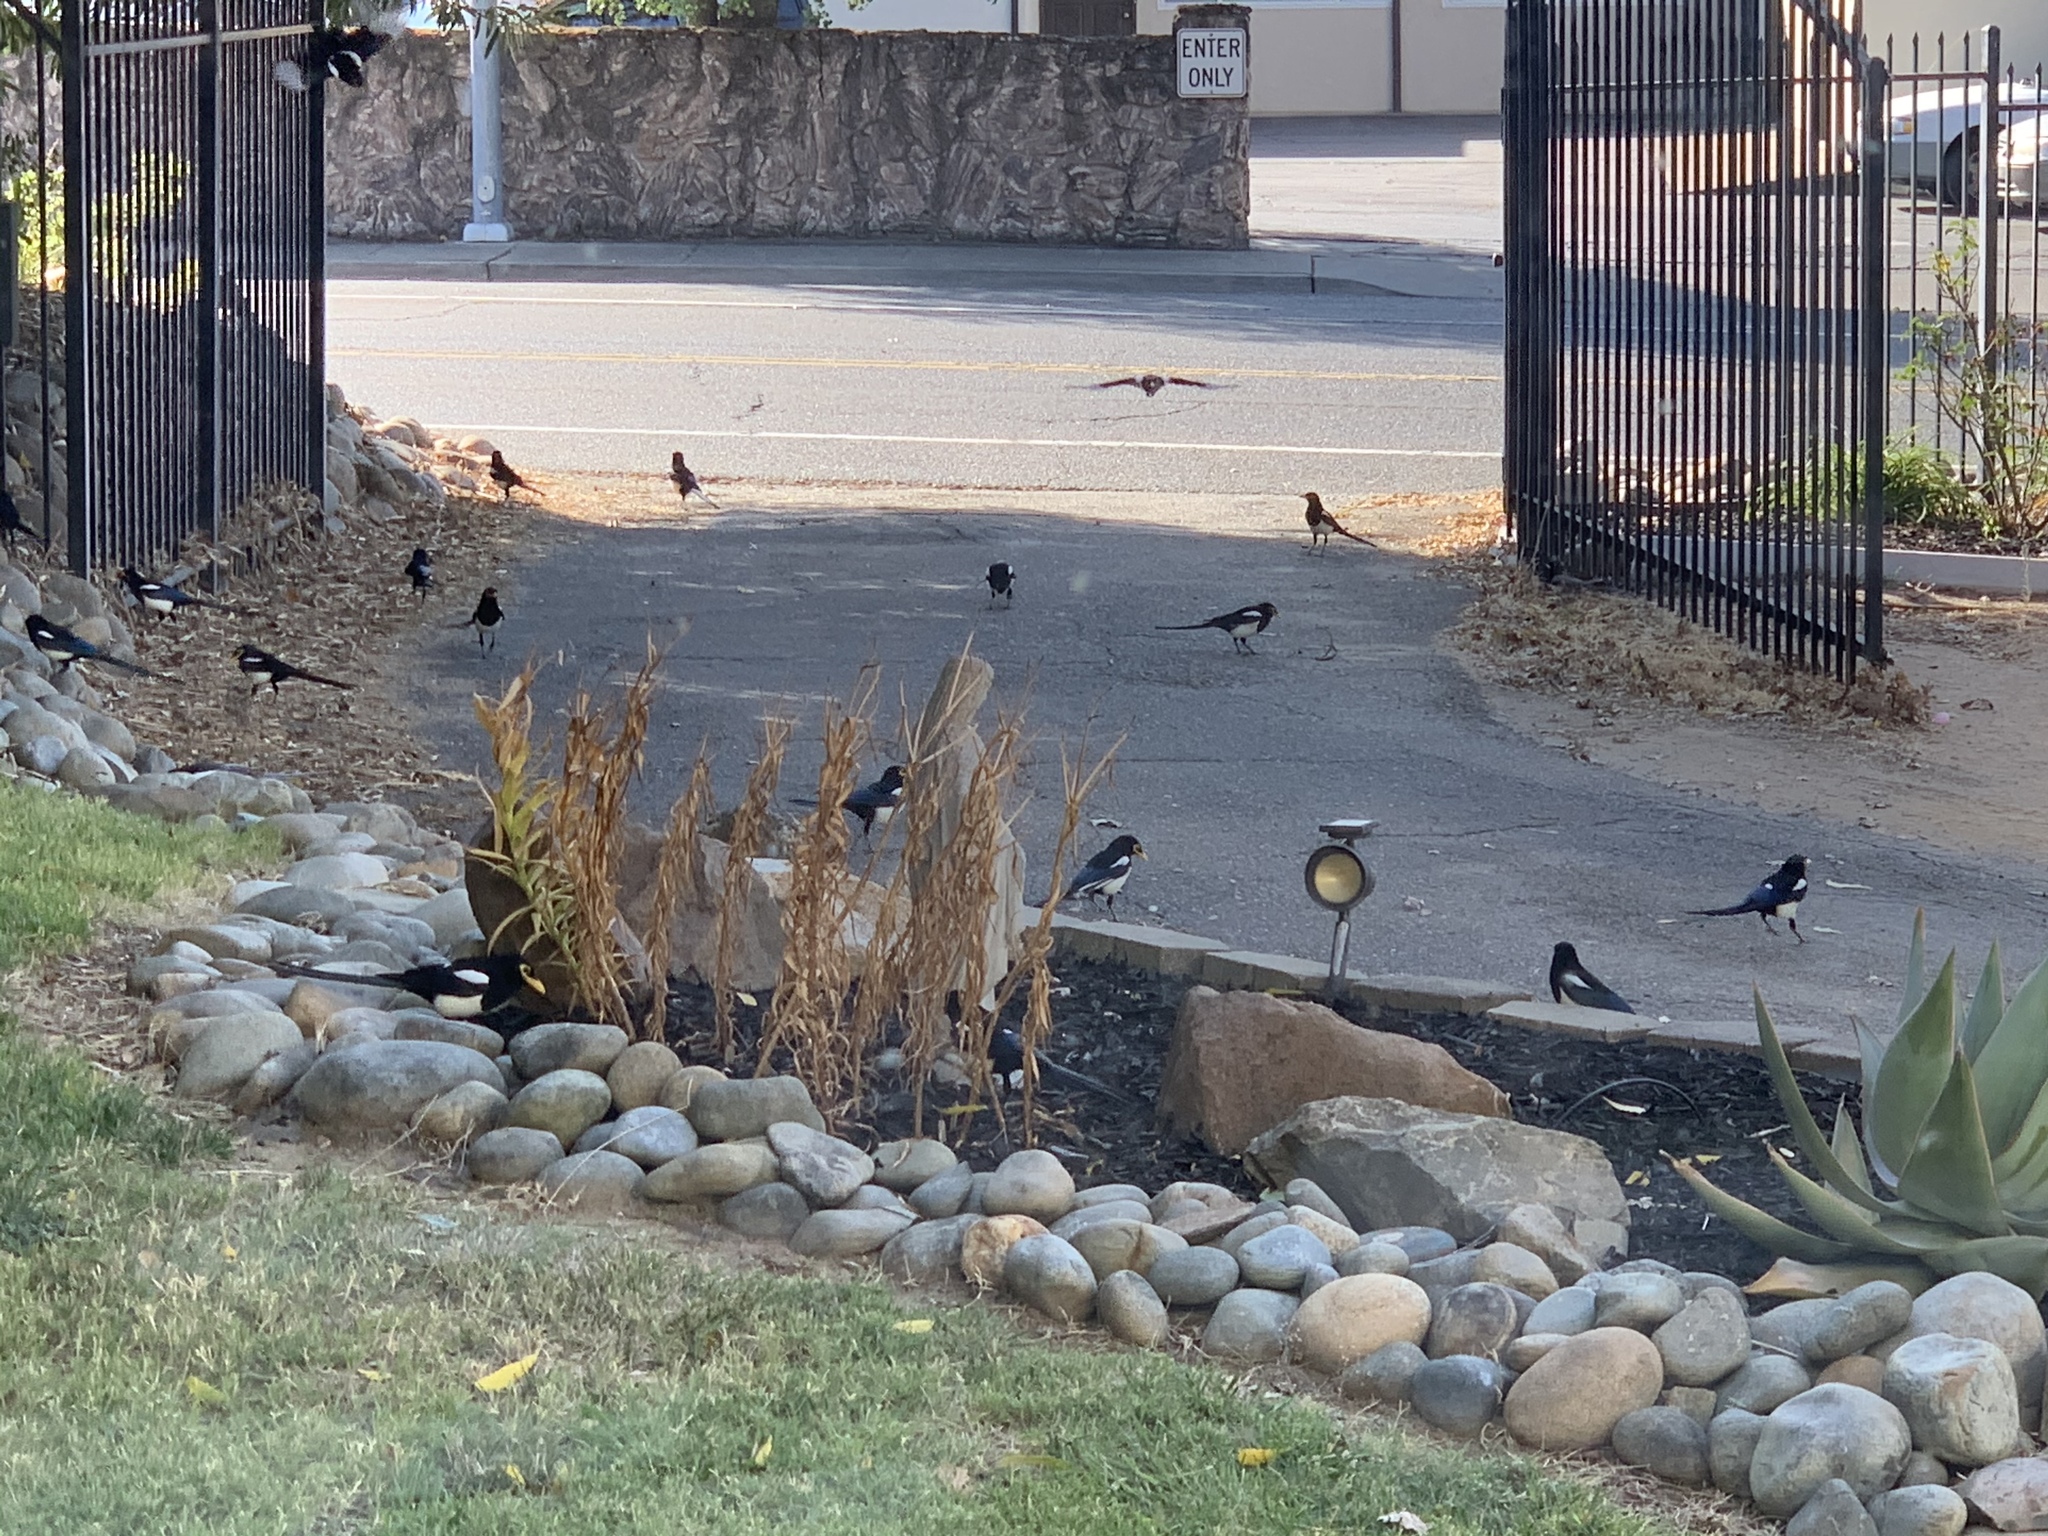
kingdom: Animalia
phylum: Chordata
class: Aves
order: Passeriformes
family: Corvidae
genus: Pica
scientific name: Pica nuttalli
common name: Yellow-billed magpie
